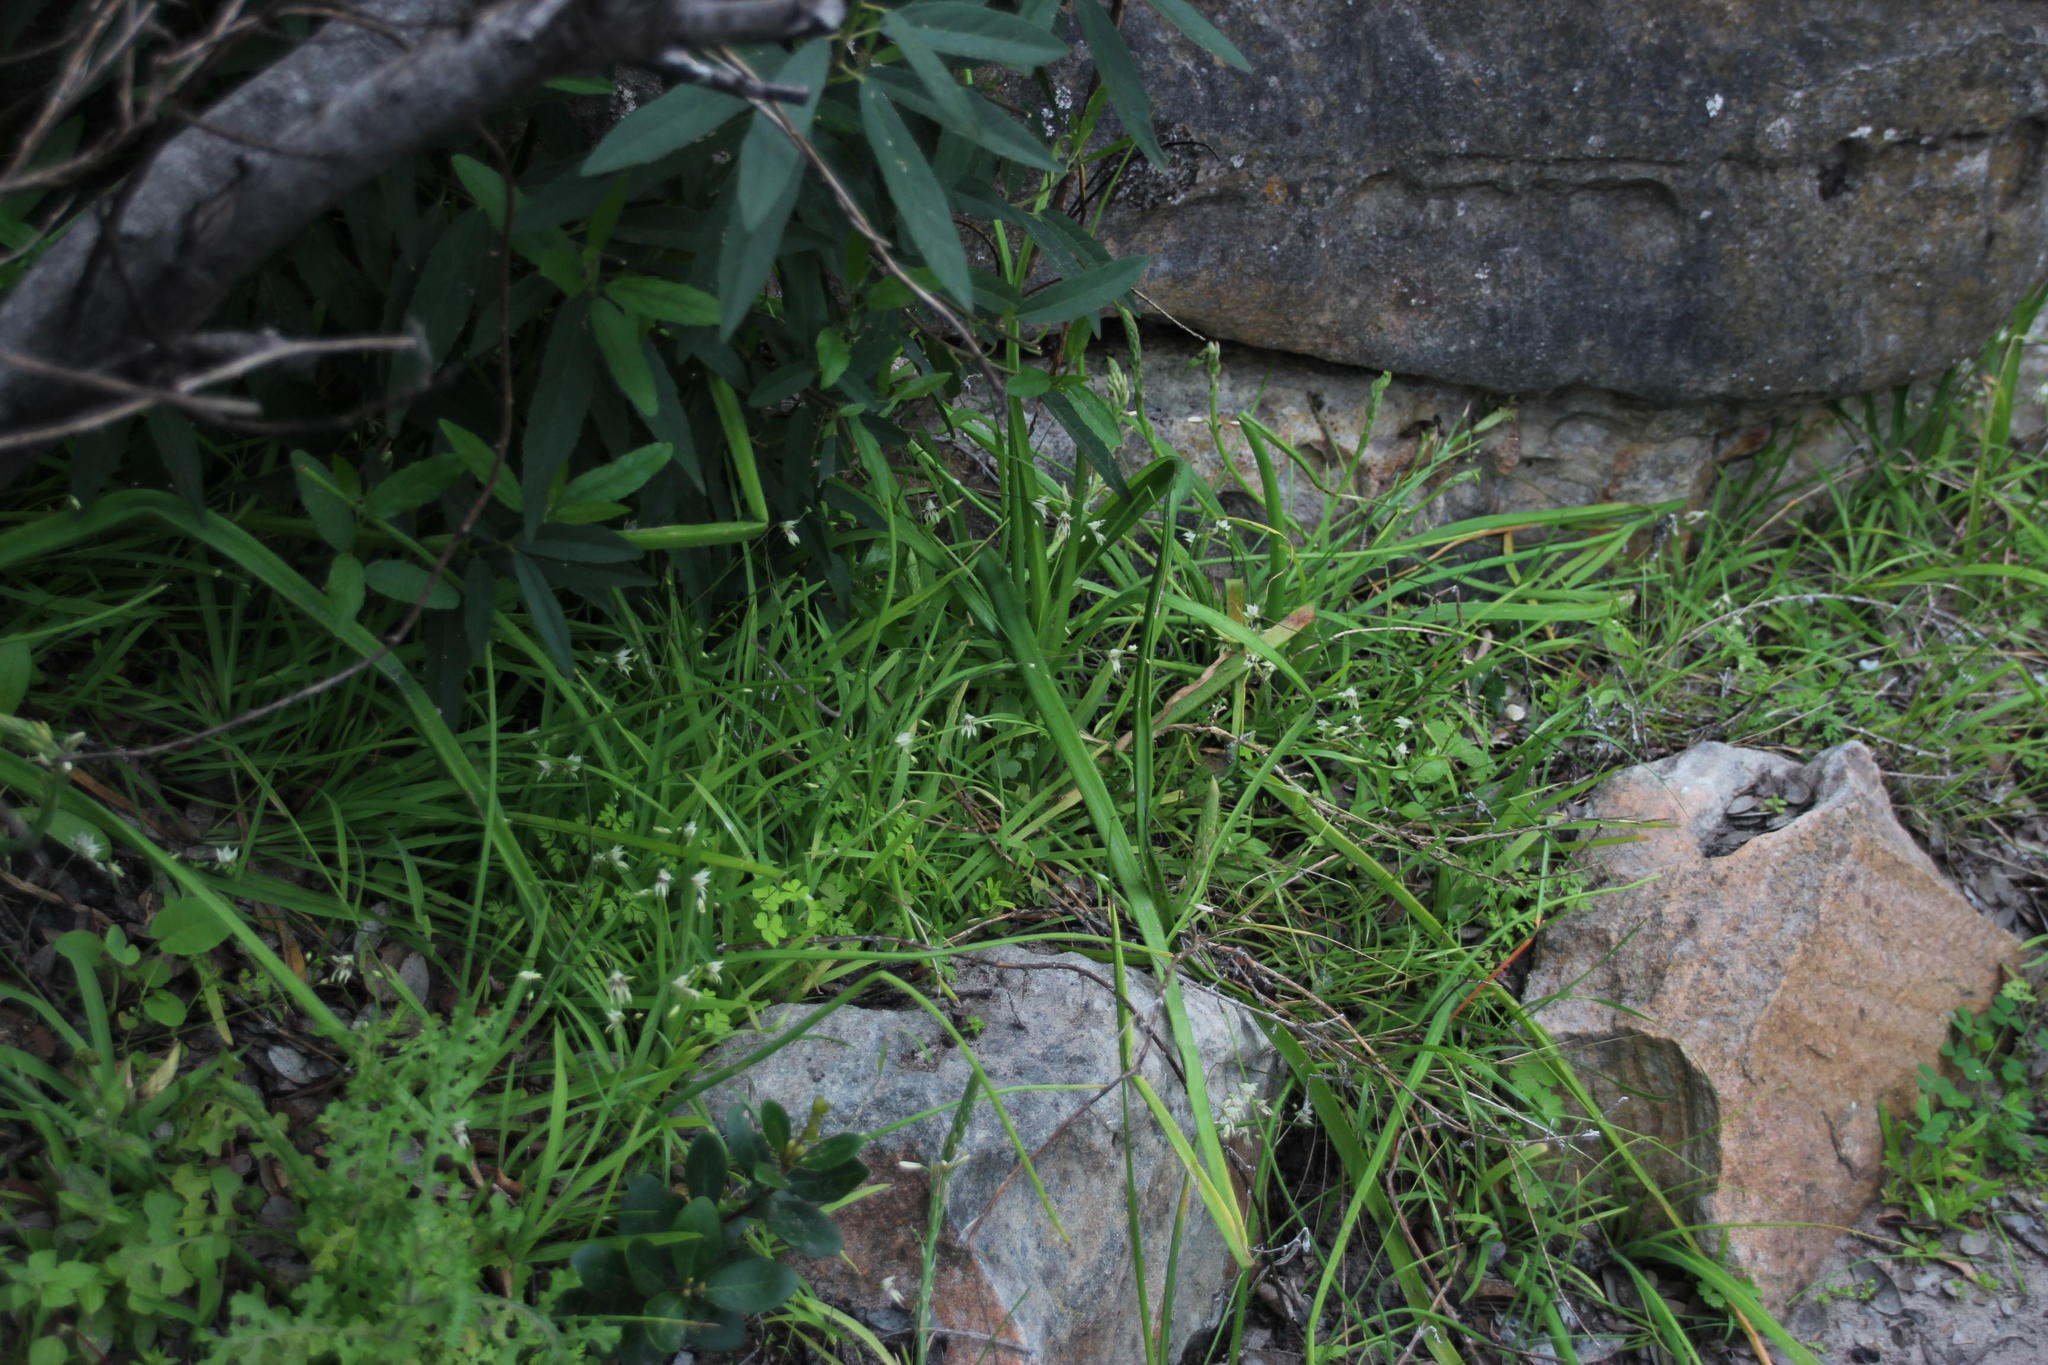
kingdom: Plantae
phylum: Tracheophyta
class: Liliopsida
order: Asparagales
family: Iridaceae
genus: Melasphaerula
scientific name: Melasphaerula graminea
